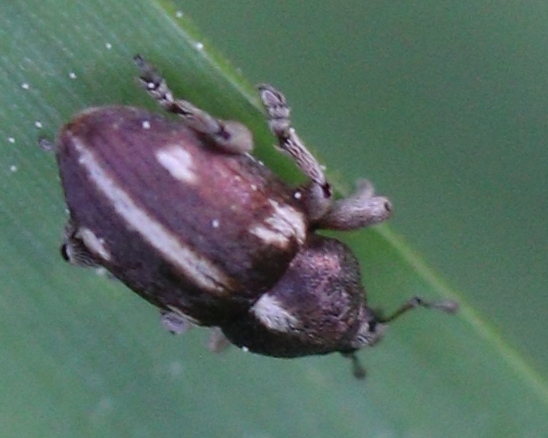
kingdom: Animalia
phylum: Arthropoda
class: Insecta
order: Coleoptera
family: Curculionidae
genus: Tychius
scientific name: Tychius quinquepunctatus
